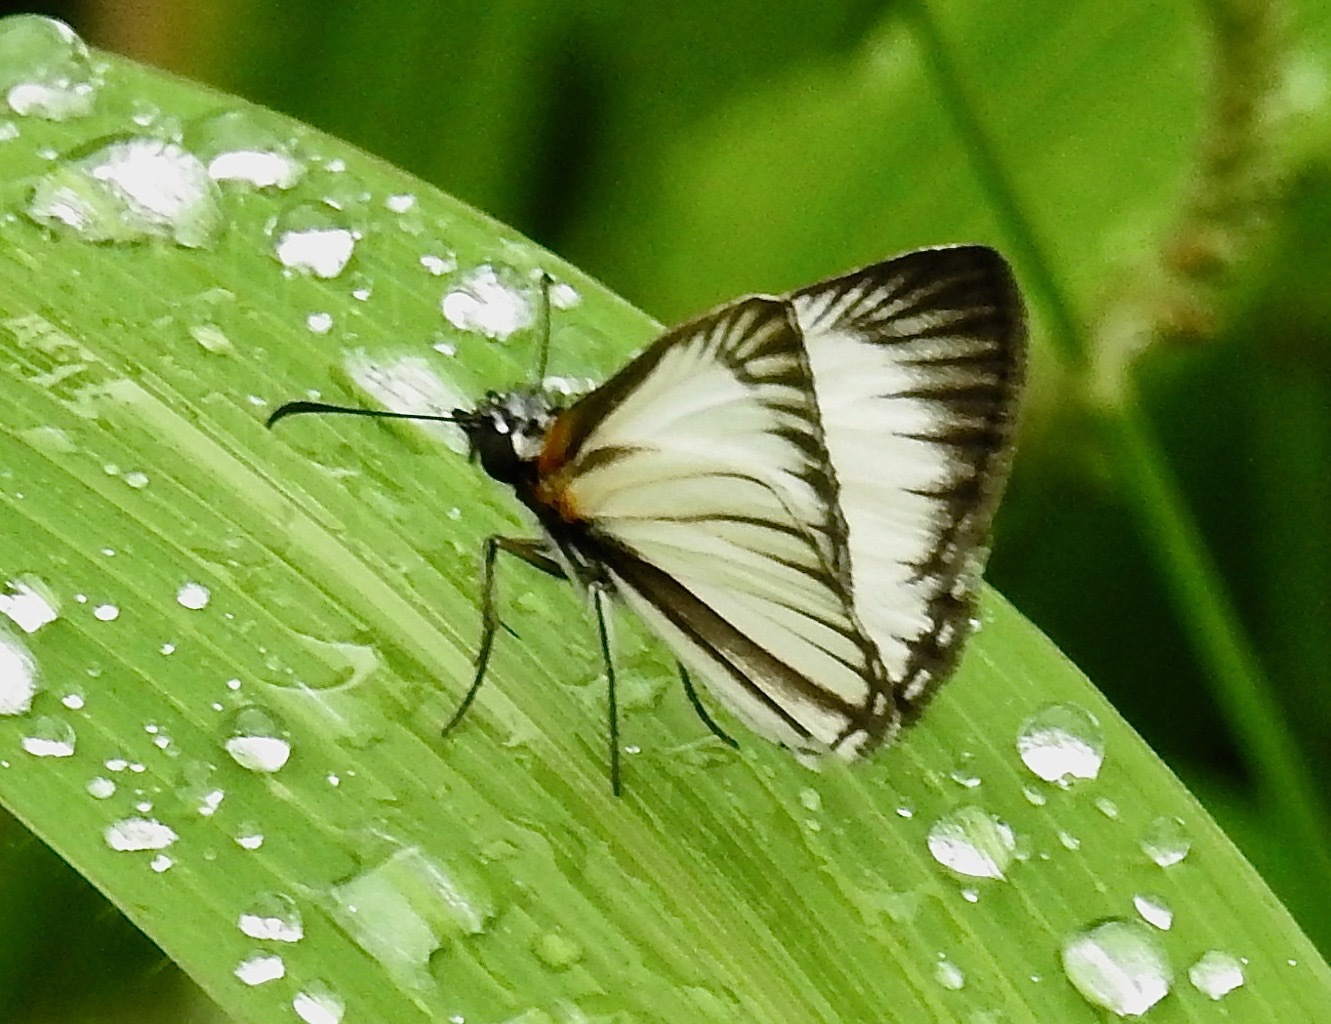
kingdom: Animalia
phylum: Arthropoda
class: Insecta
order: Lepidoptera
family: Hesperiidae
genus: Heliopetes
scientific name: Heliopetes arsalte
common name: Veined white-skipper
